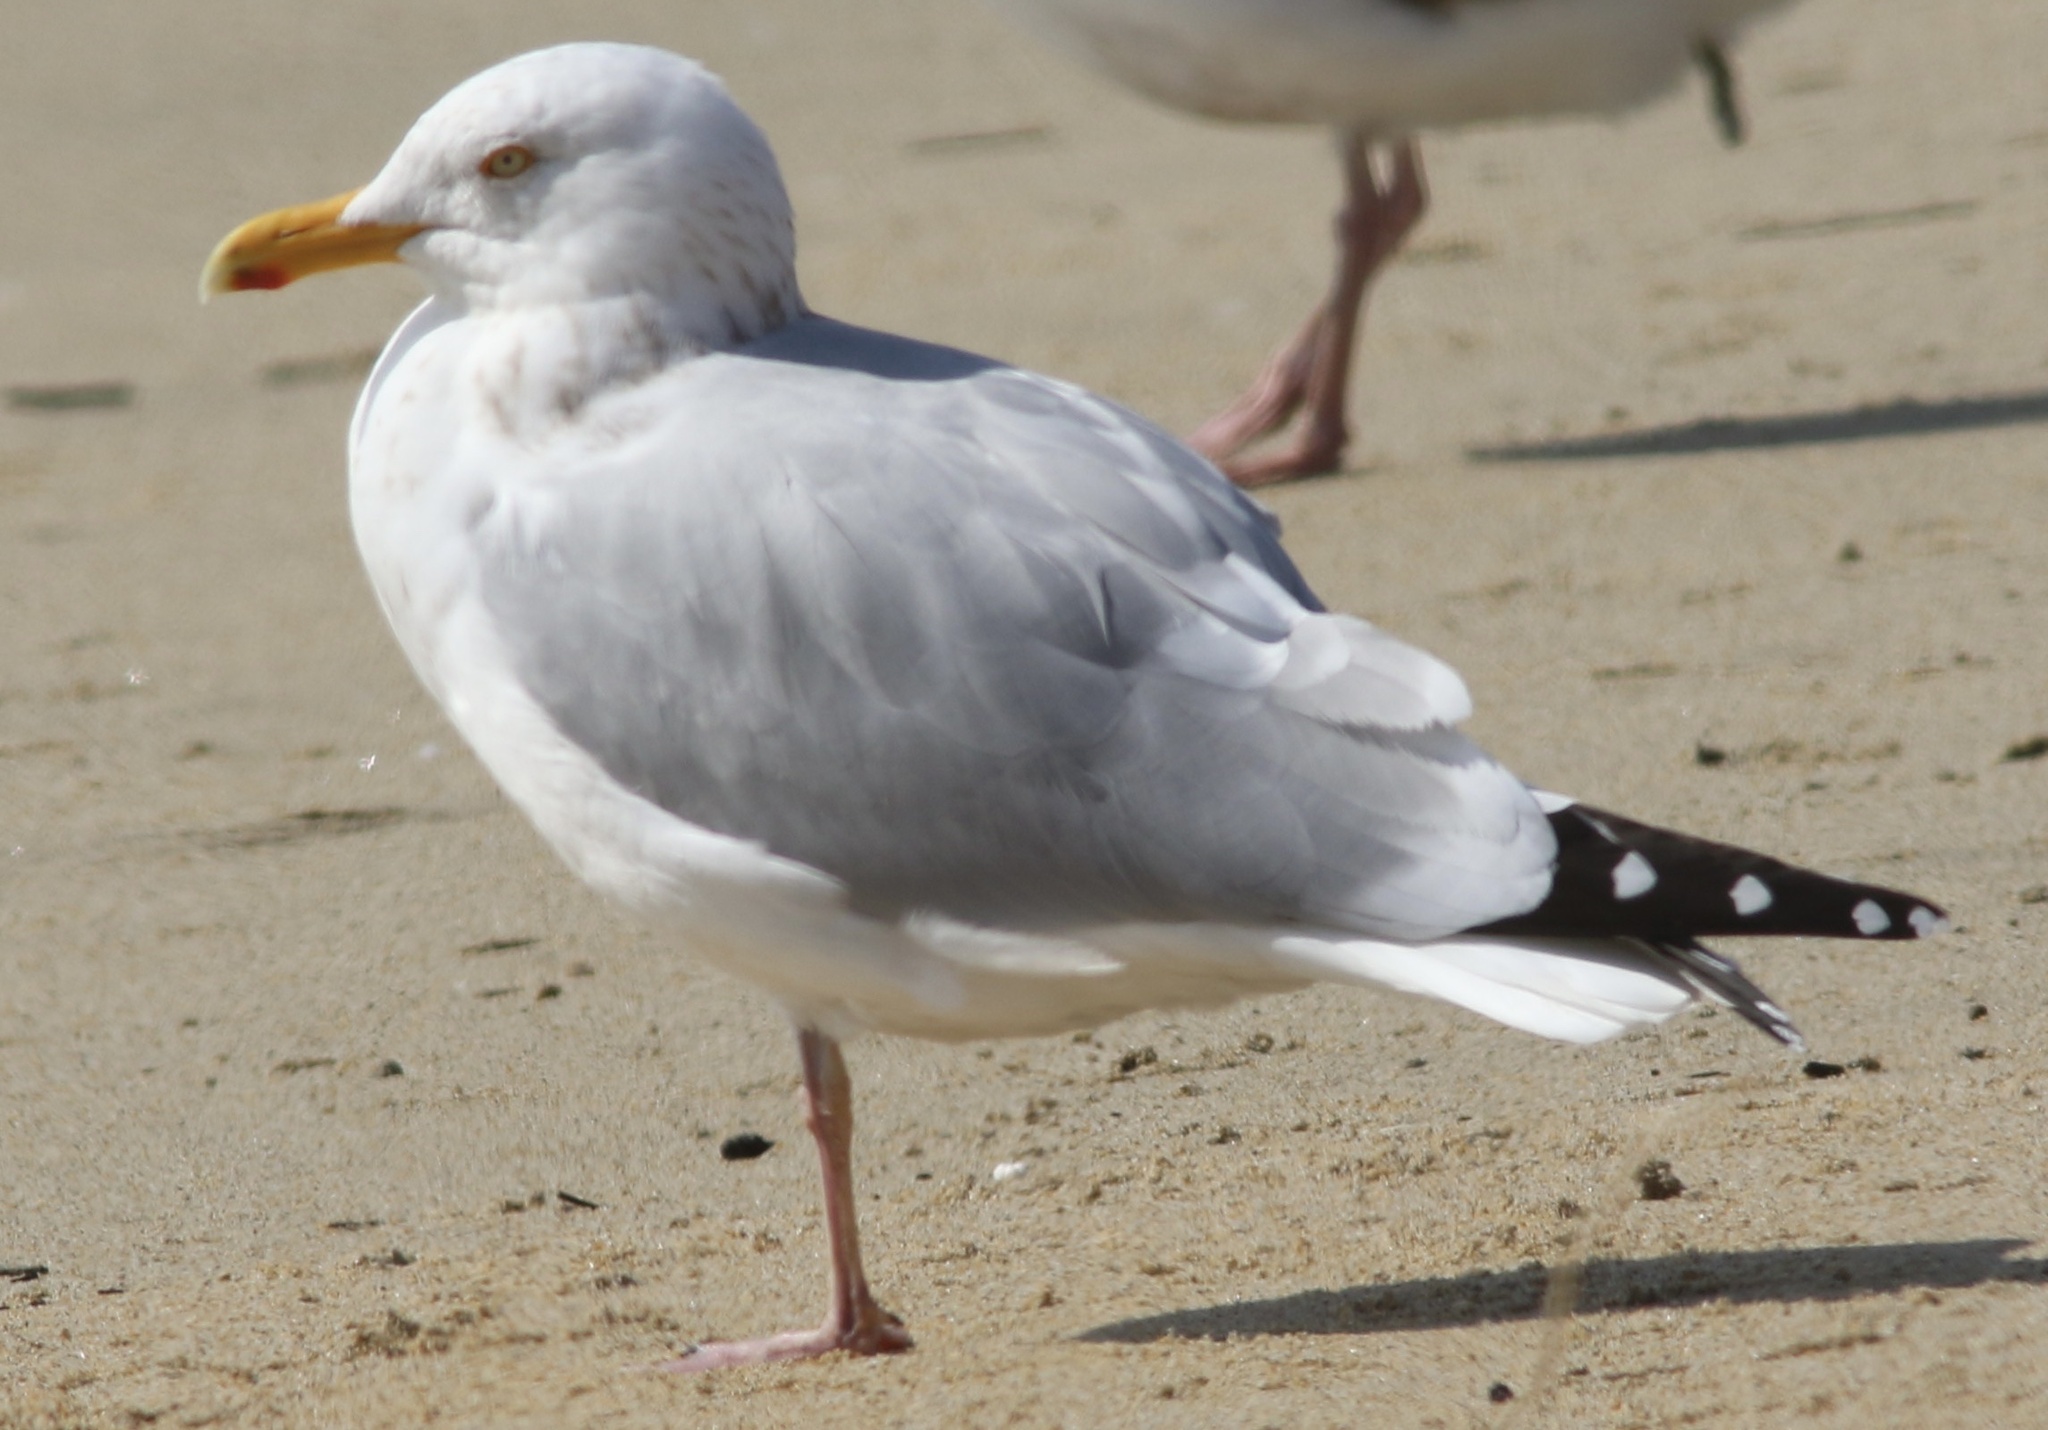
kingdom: Animalia
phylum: Chordata
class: Aves
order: Charadriiformes
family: Laridae
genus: Larus
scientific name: Larus argentatus
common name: Herring gull
